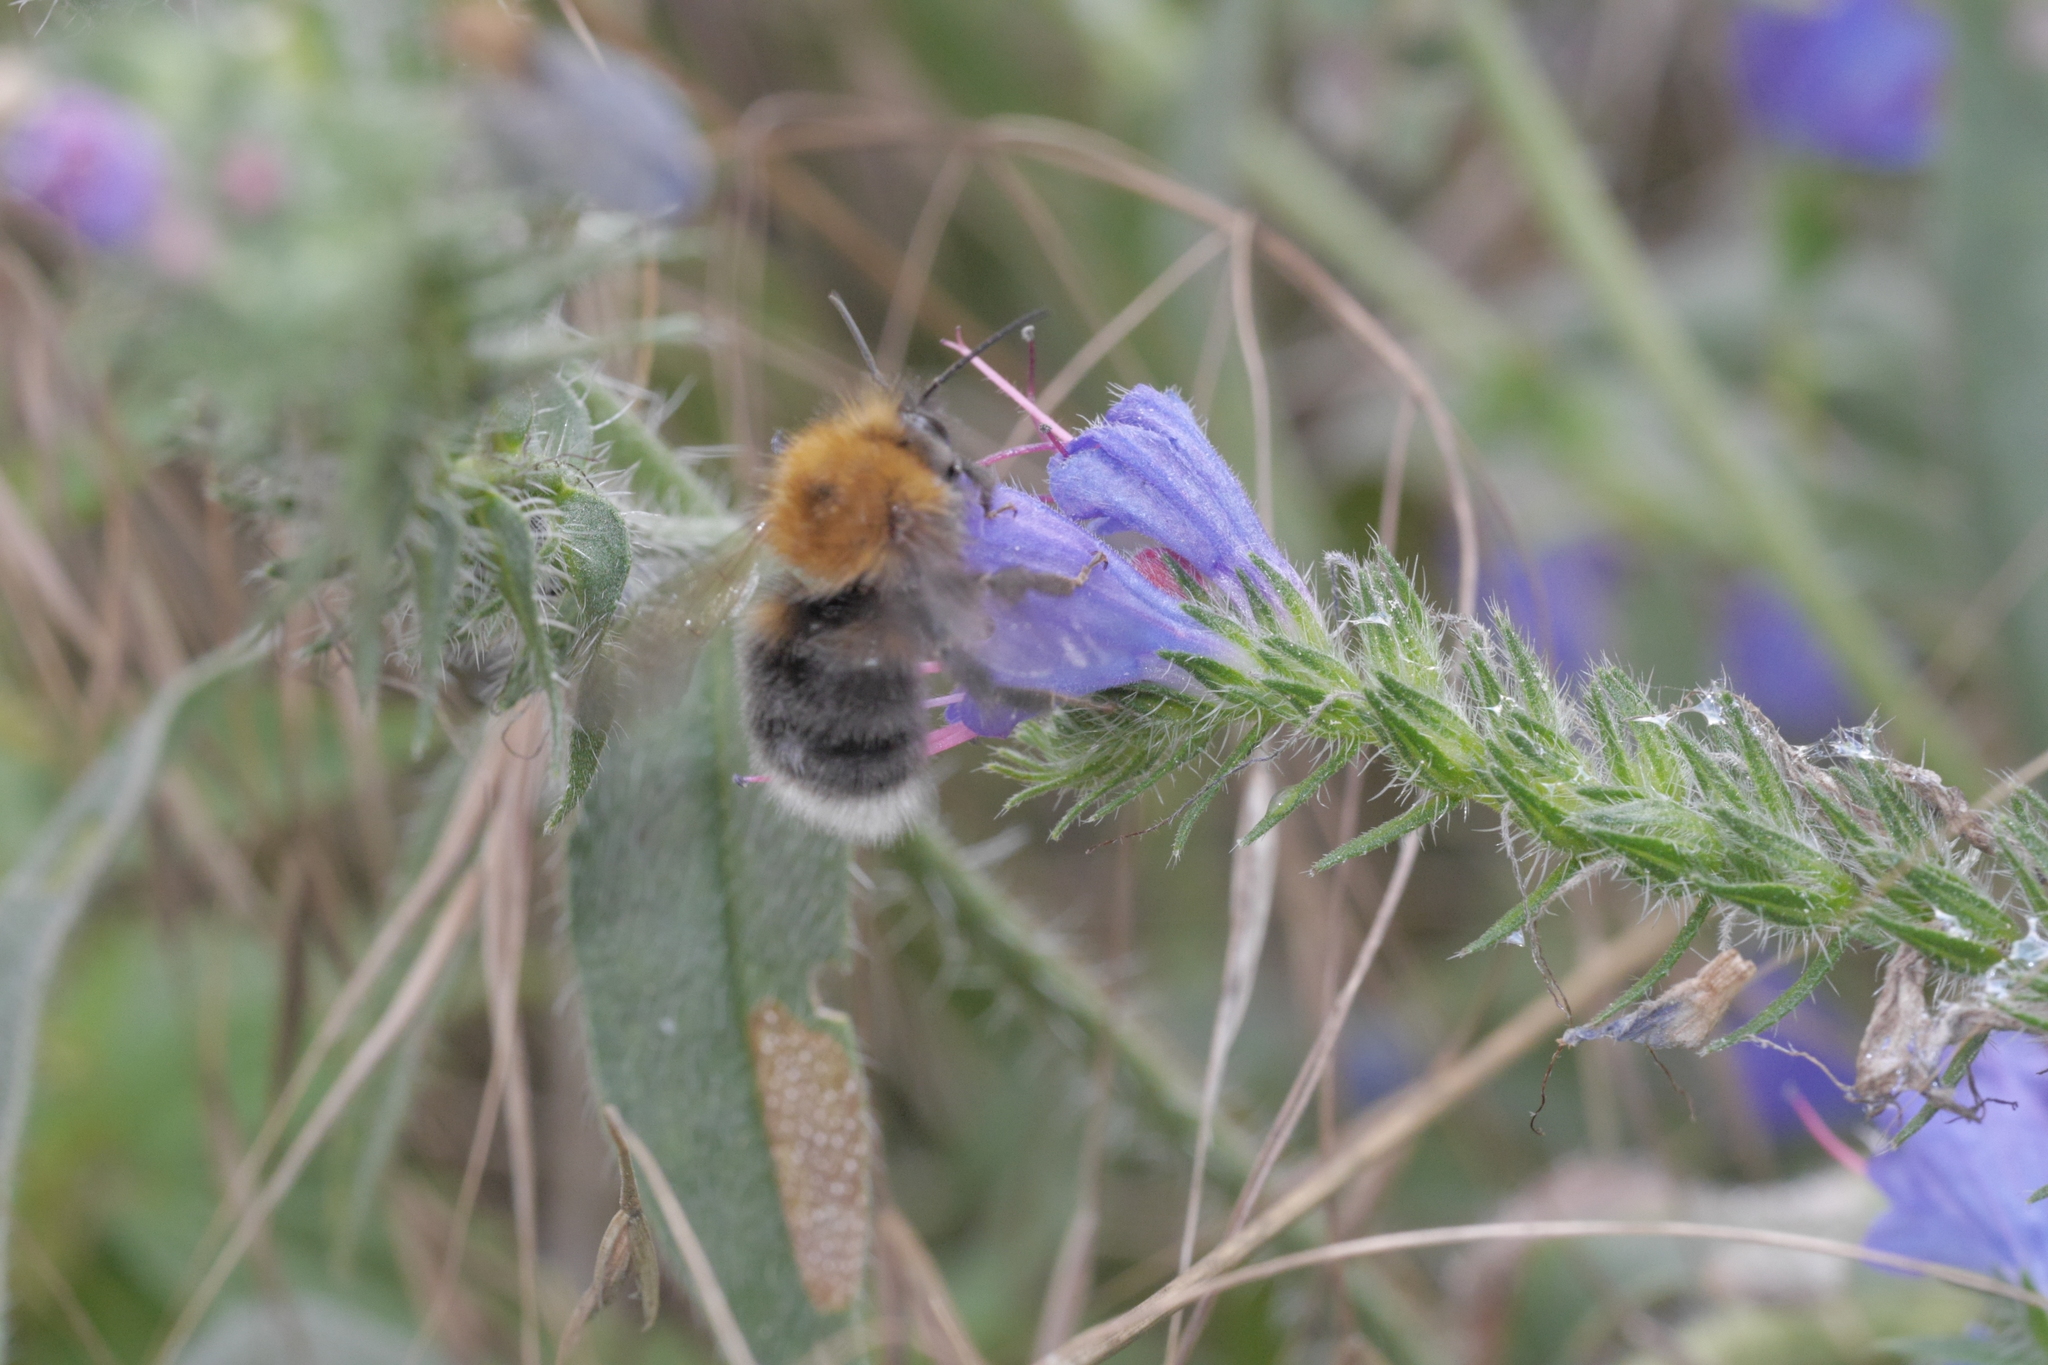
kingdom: Animalia
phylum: Arthropoda
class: Insecta
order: Hymenoptera
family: Apidae
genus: Bombus
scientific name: Bombus hypnorum
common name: New garden bumblebee
